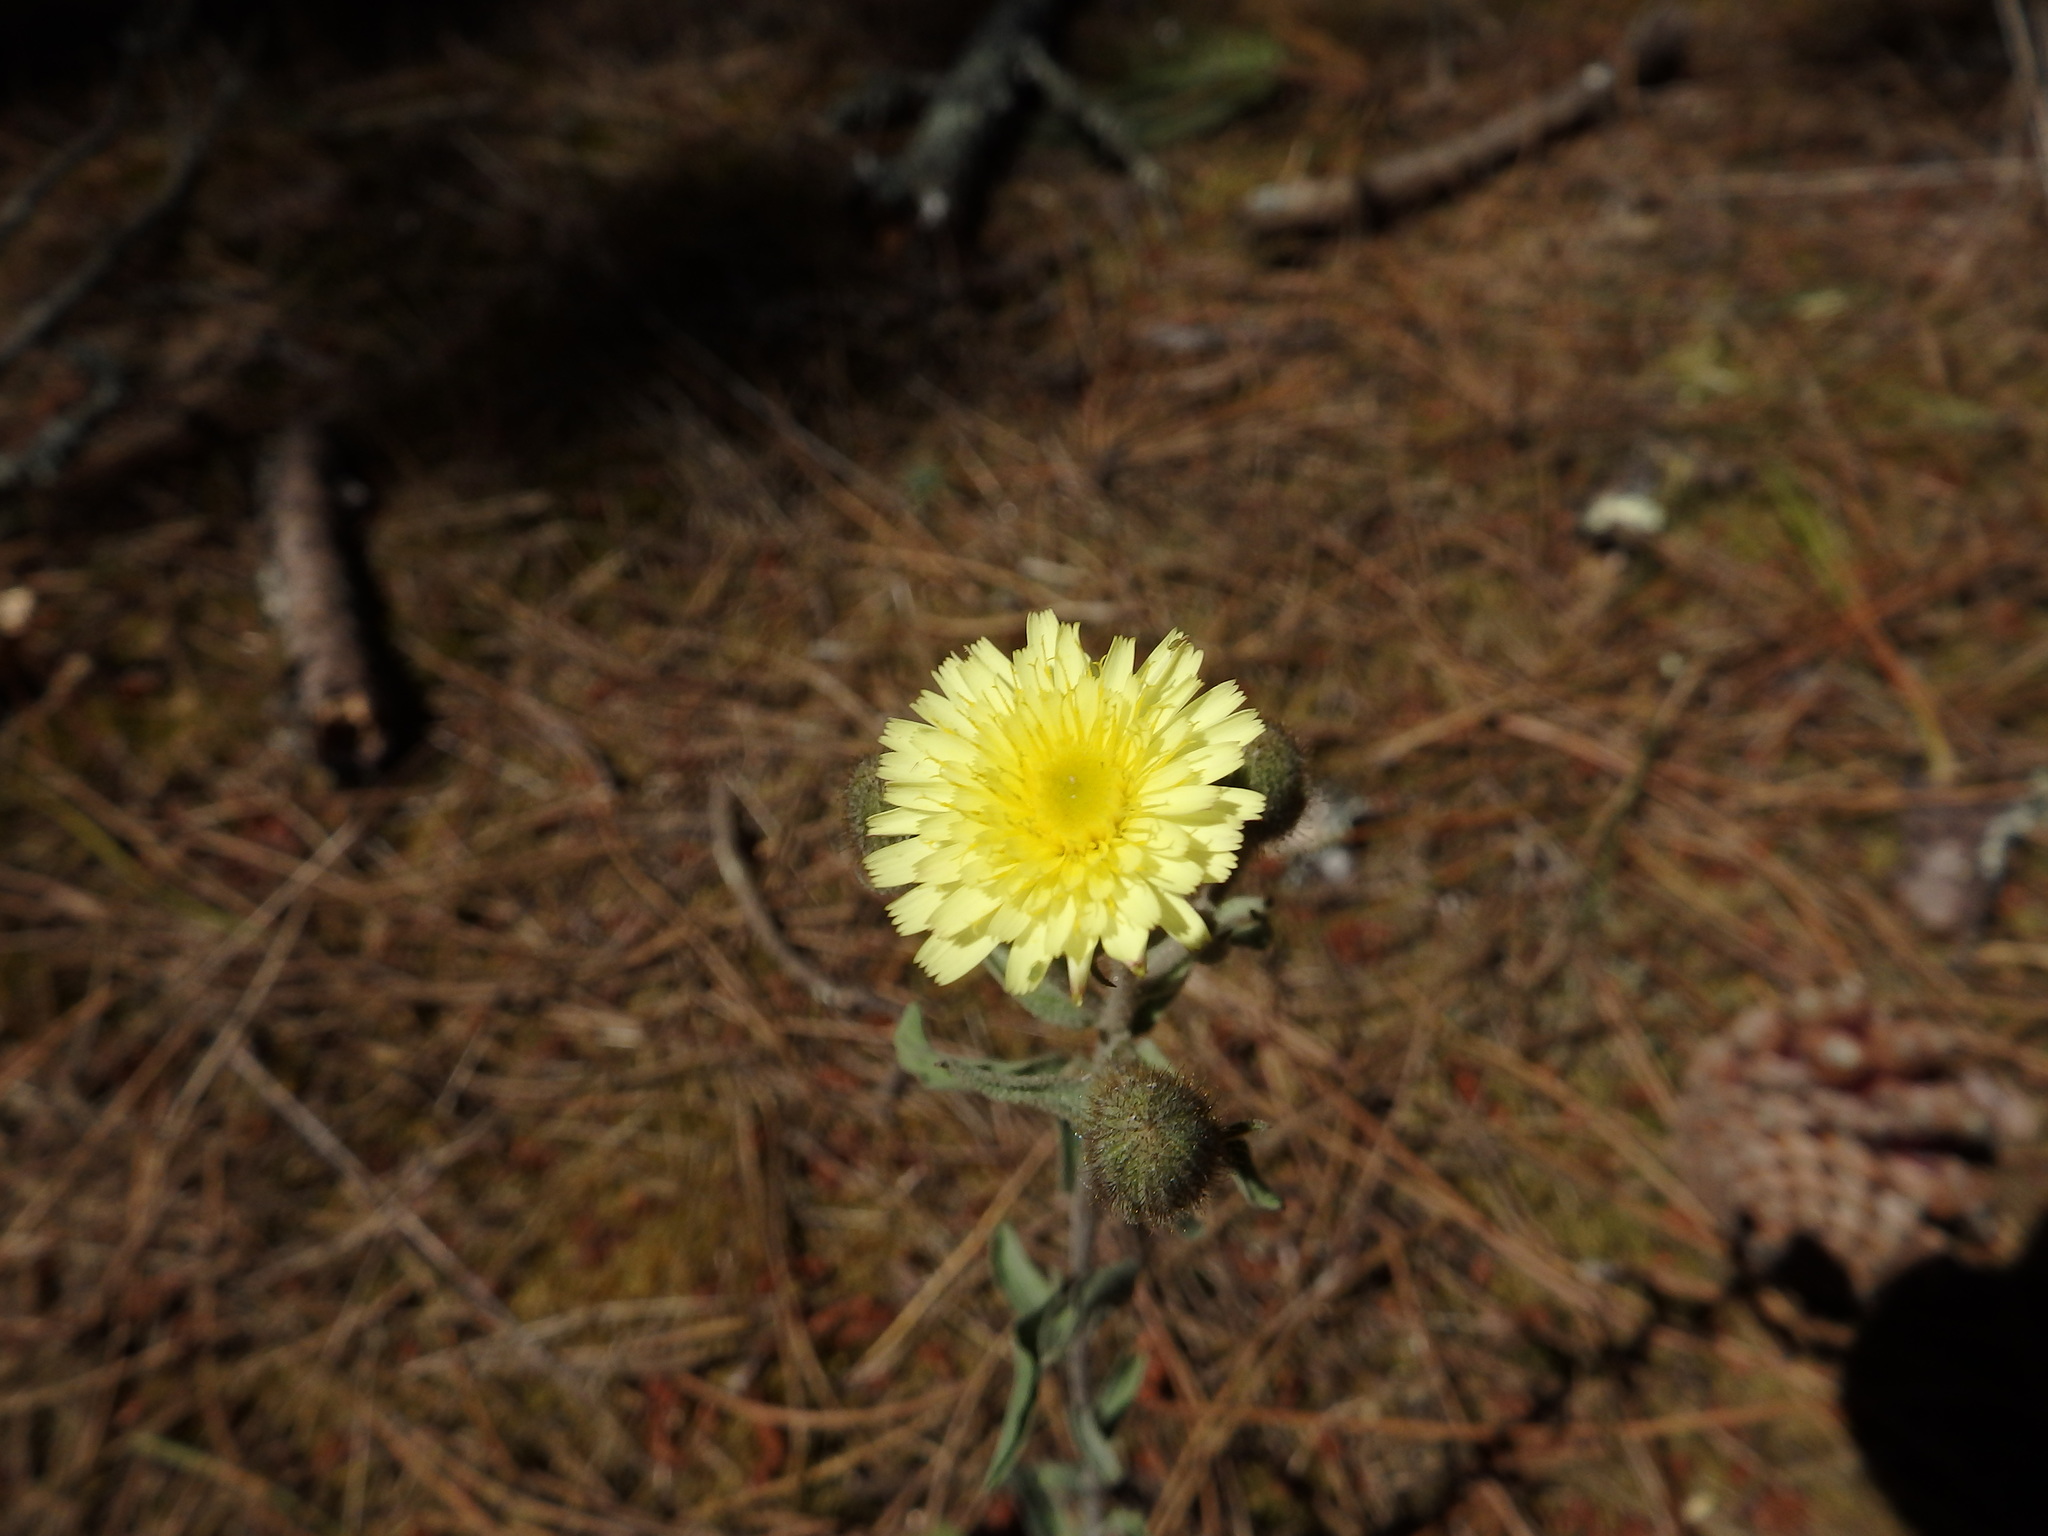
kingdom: Plantae
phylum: Tracheophyta
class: Magnoliopsida
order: Asterales
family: Asteraceae
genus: Andryala
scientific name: Andryala integrifolia
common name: Common andryala
